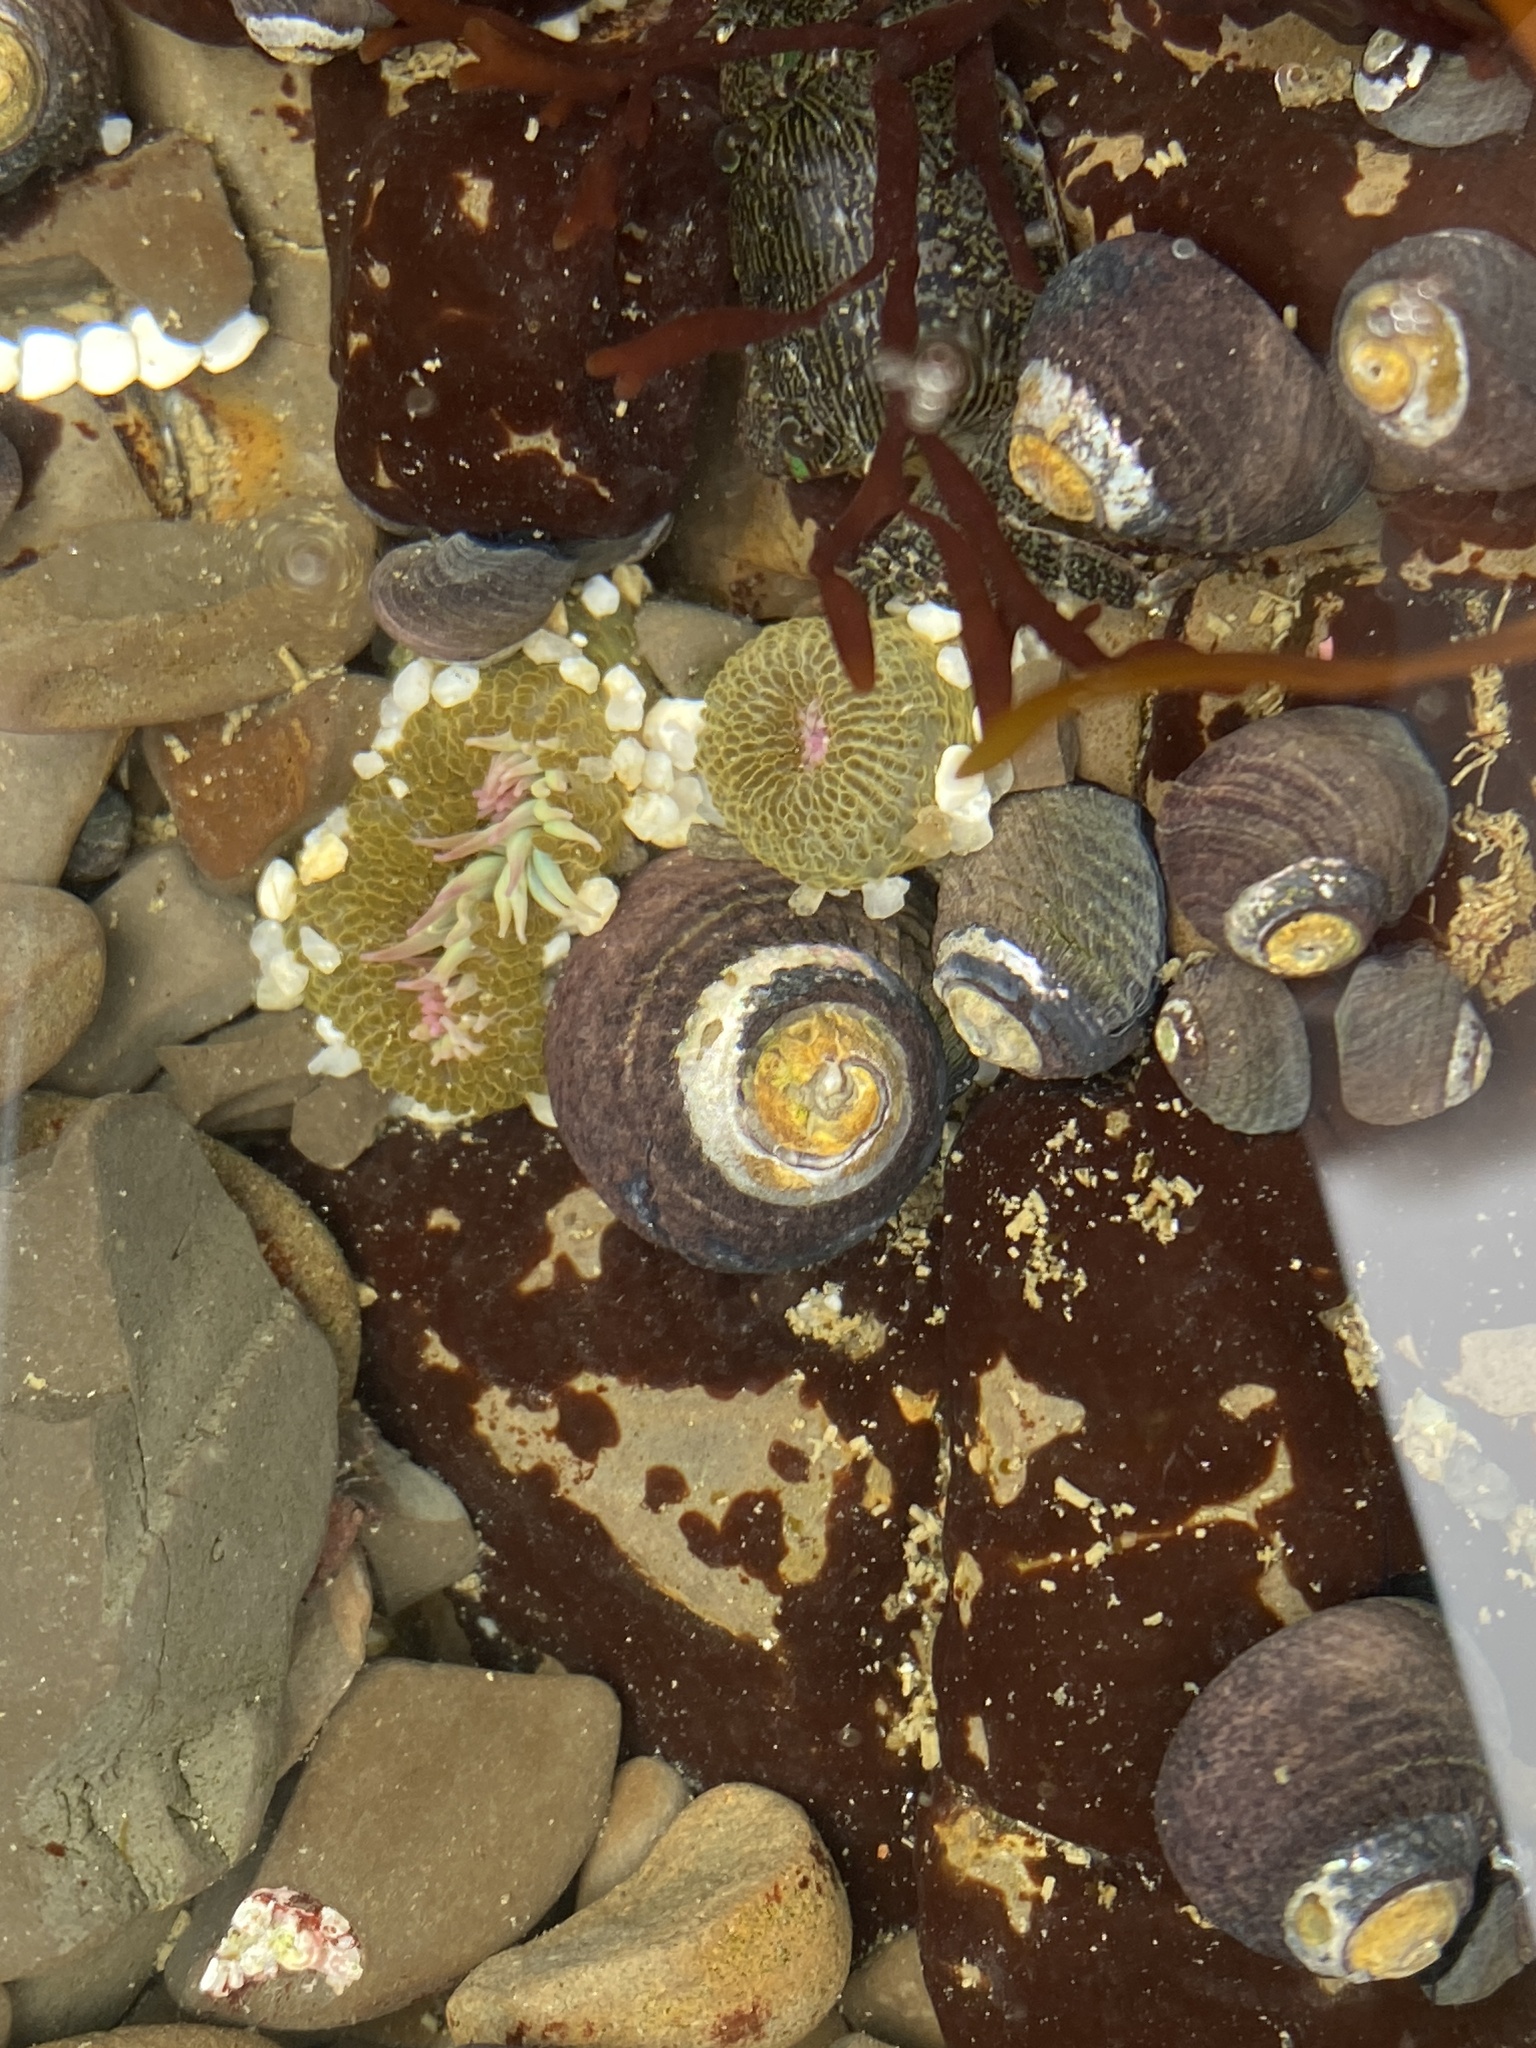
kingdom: Animalia
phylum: Mollusca
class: Gastropoda
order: Trochida
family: Tegulidae
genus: Tegula
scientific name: Tegula funebralis
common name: Black tegula
